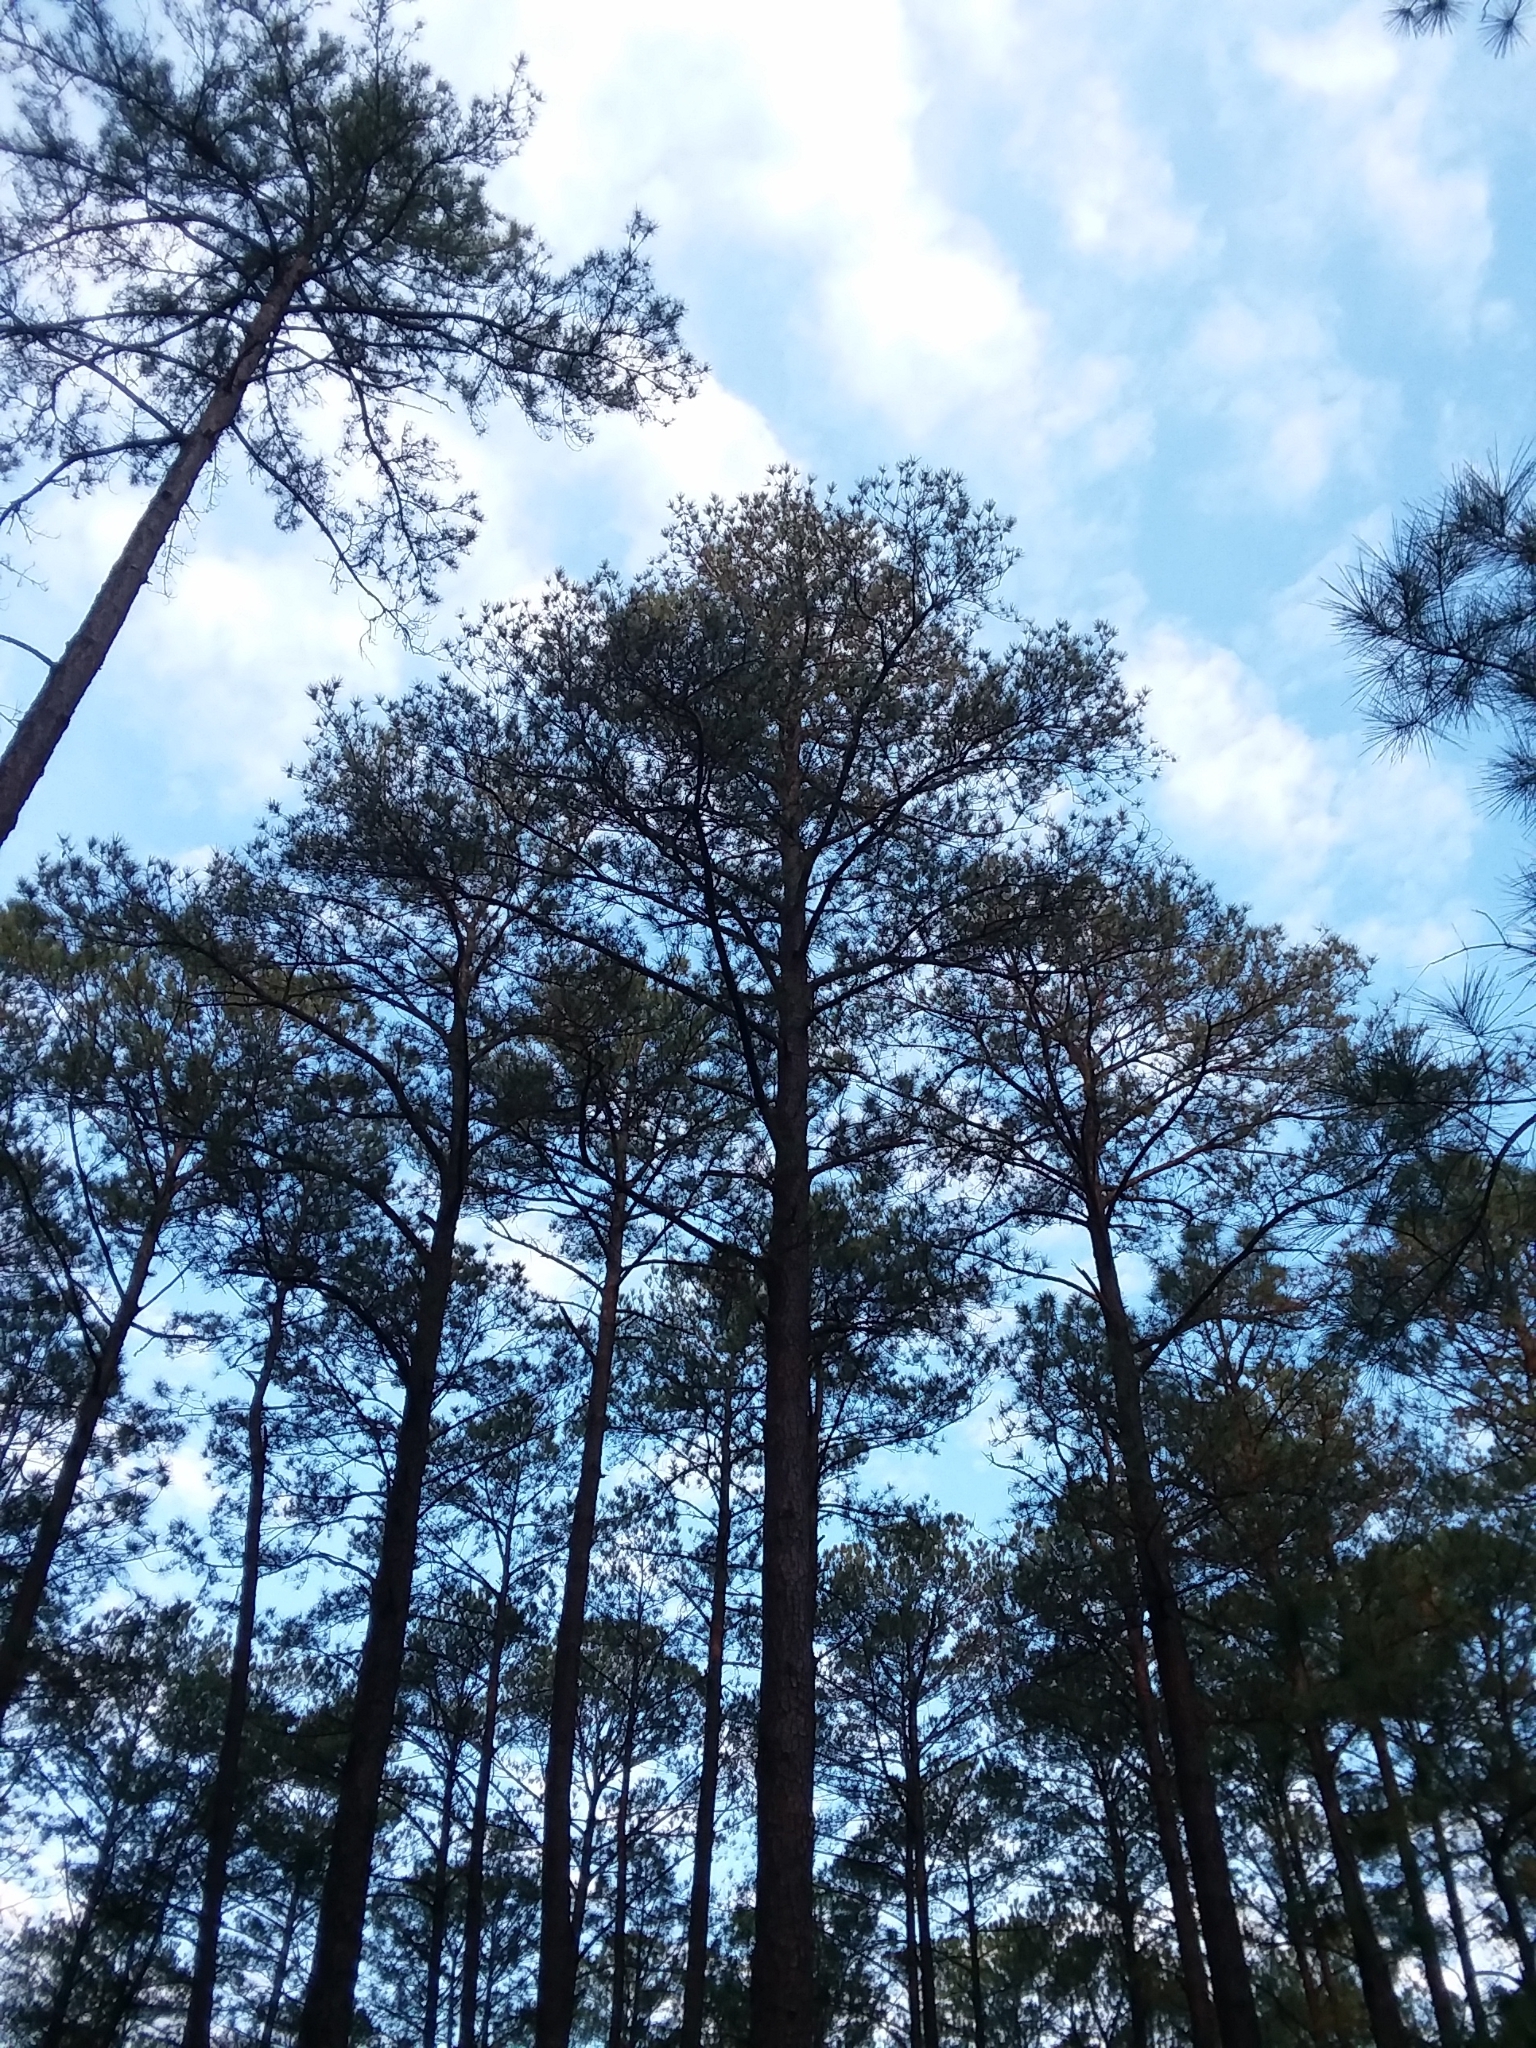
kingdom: Plantae
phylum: Tracheophyta
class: Pinopsida
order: Pinales
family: Pinaceae
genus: Pinus
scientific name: Pinus taeda
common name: Loblolly pine
